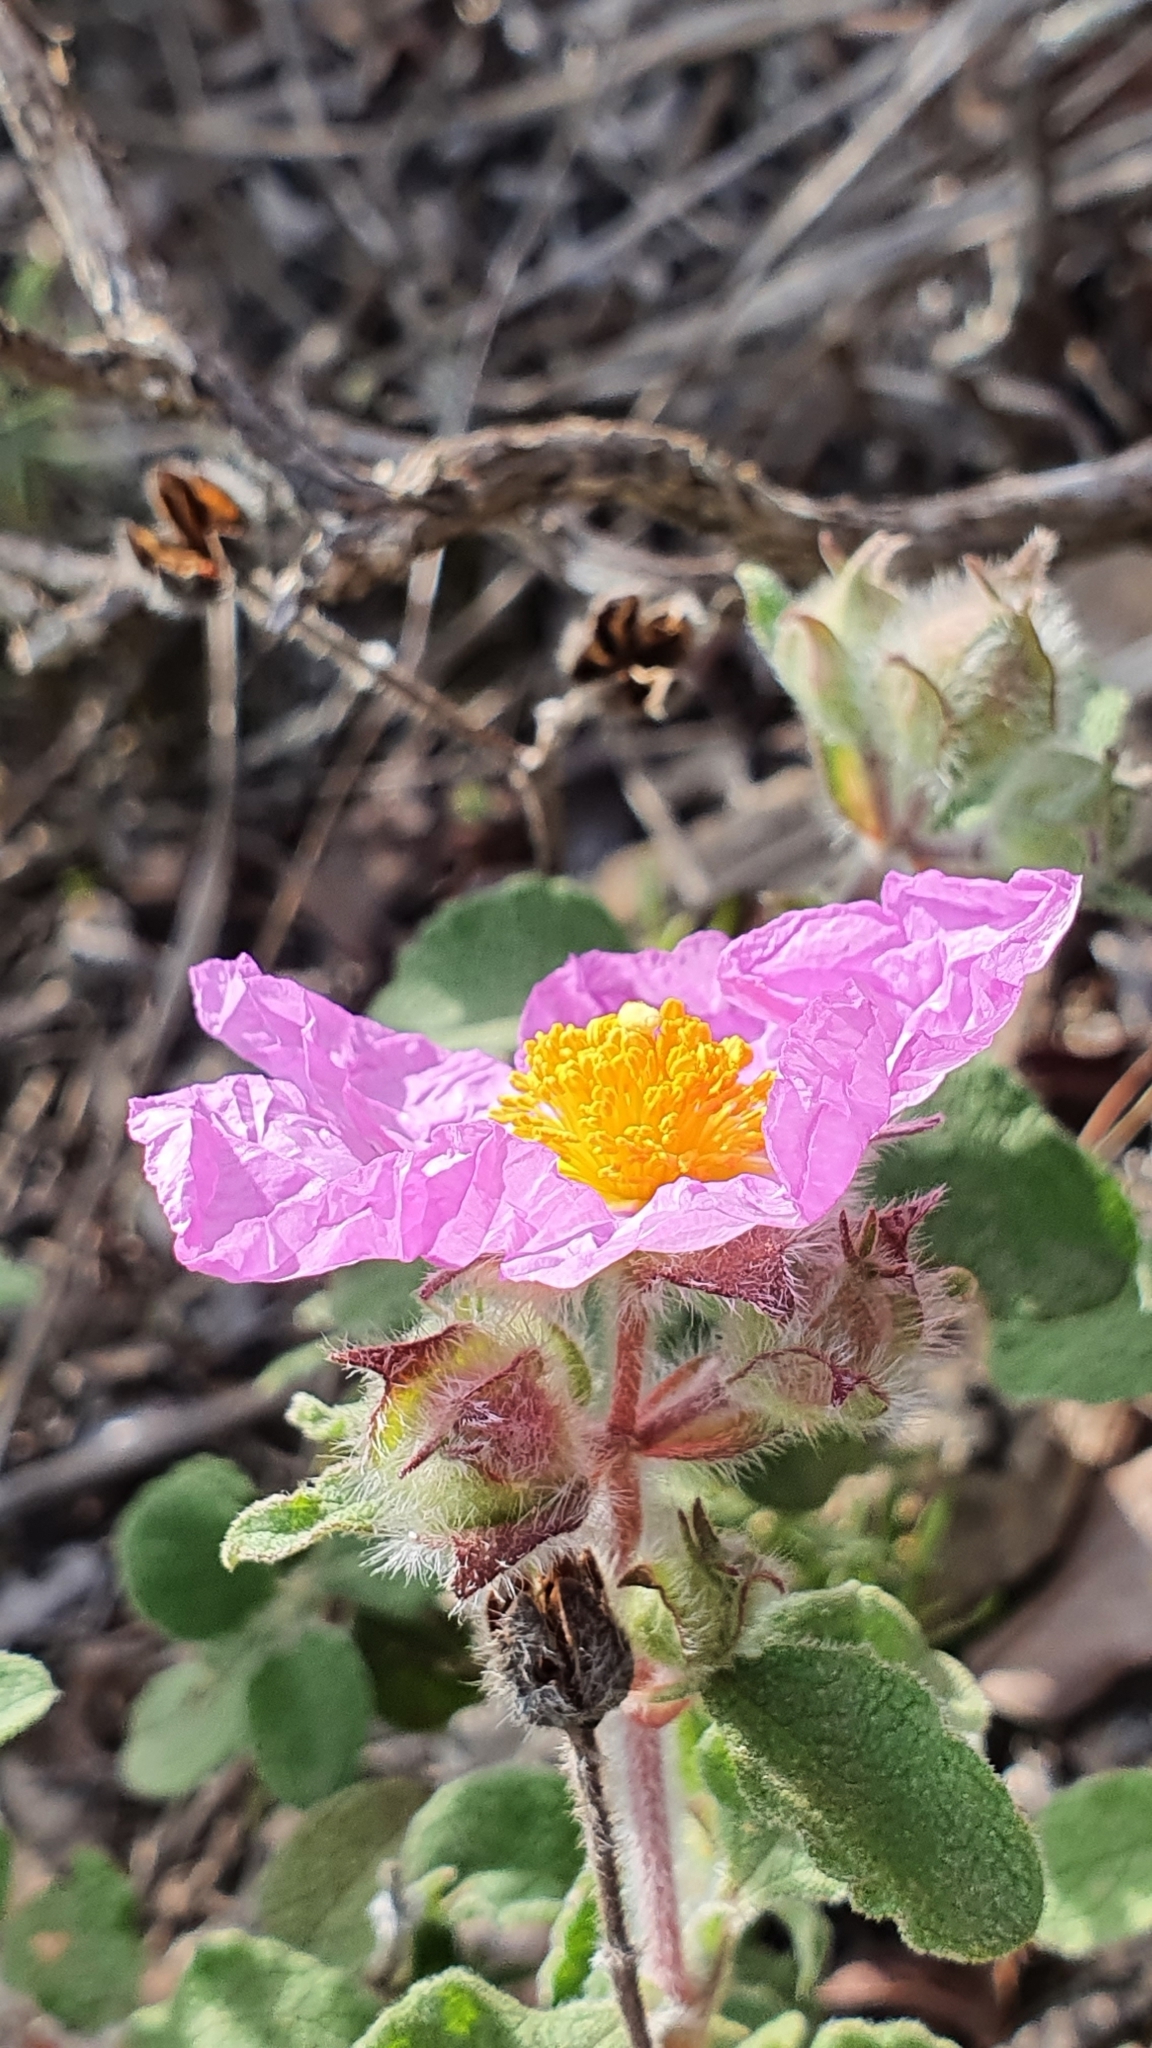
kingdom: Plantae
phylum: Tracheophyta
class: Magnoliopsida
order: Malvales
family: Cistaceae
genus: Cistus
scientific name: Cistus creticus
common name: Cretan rockrose
